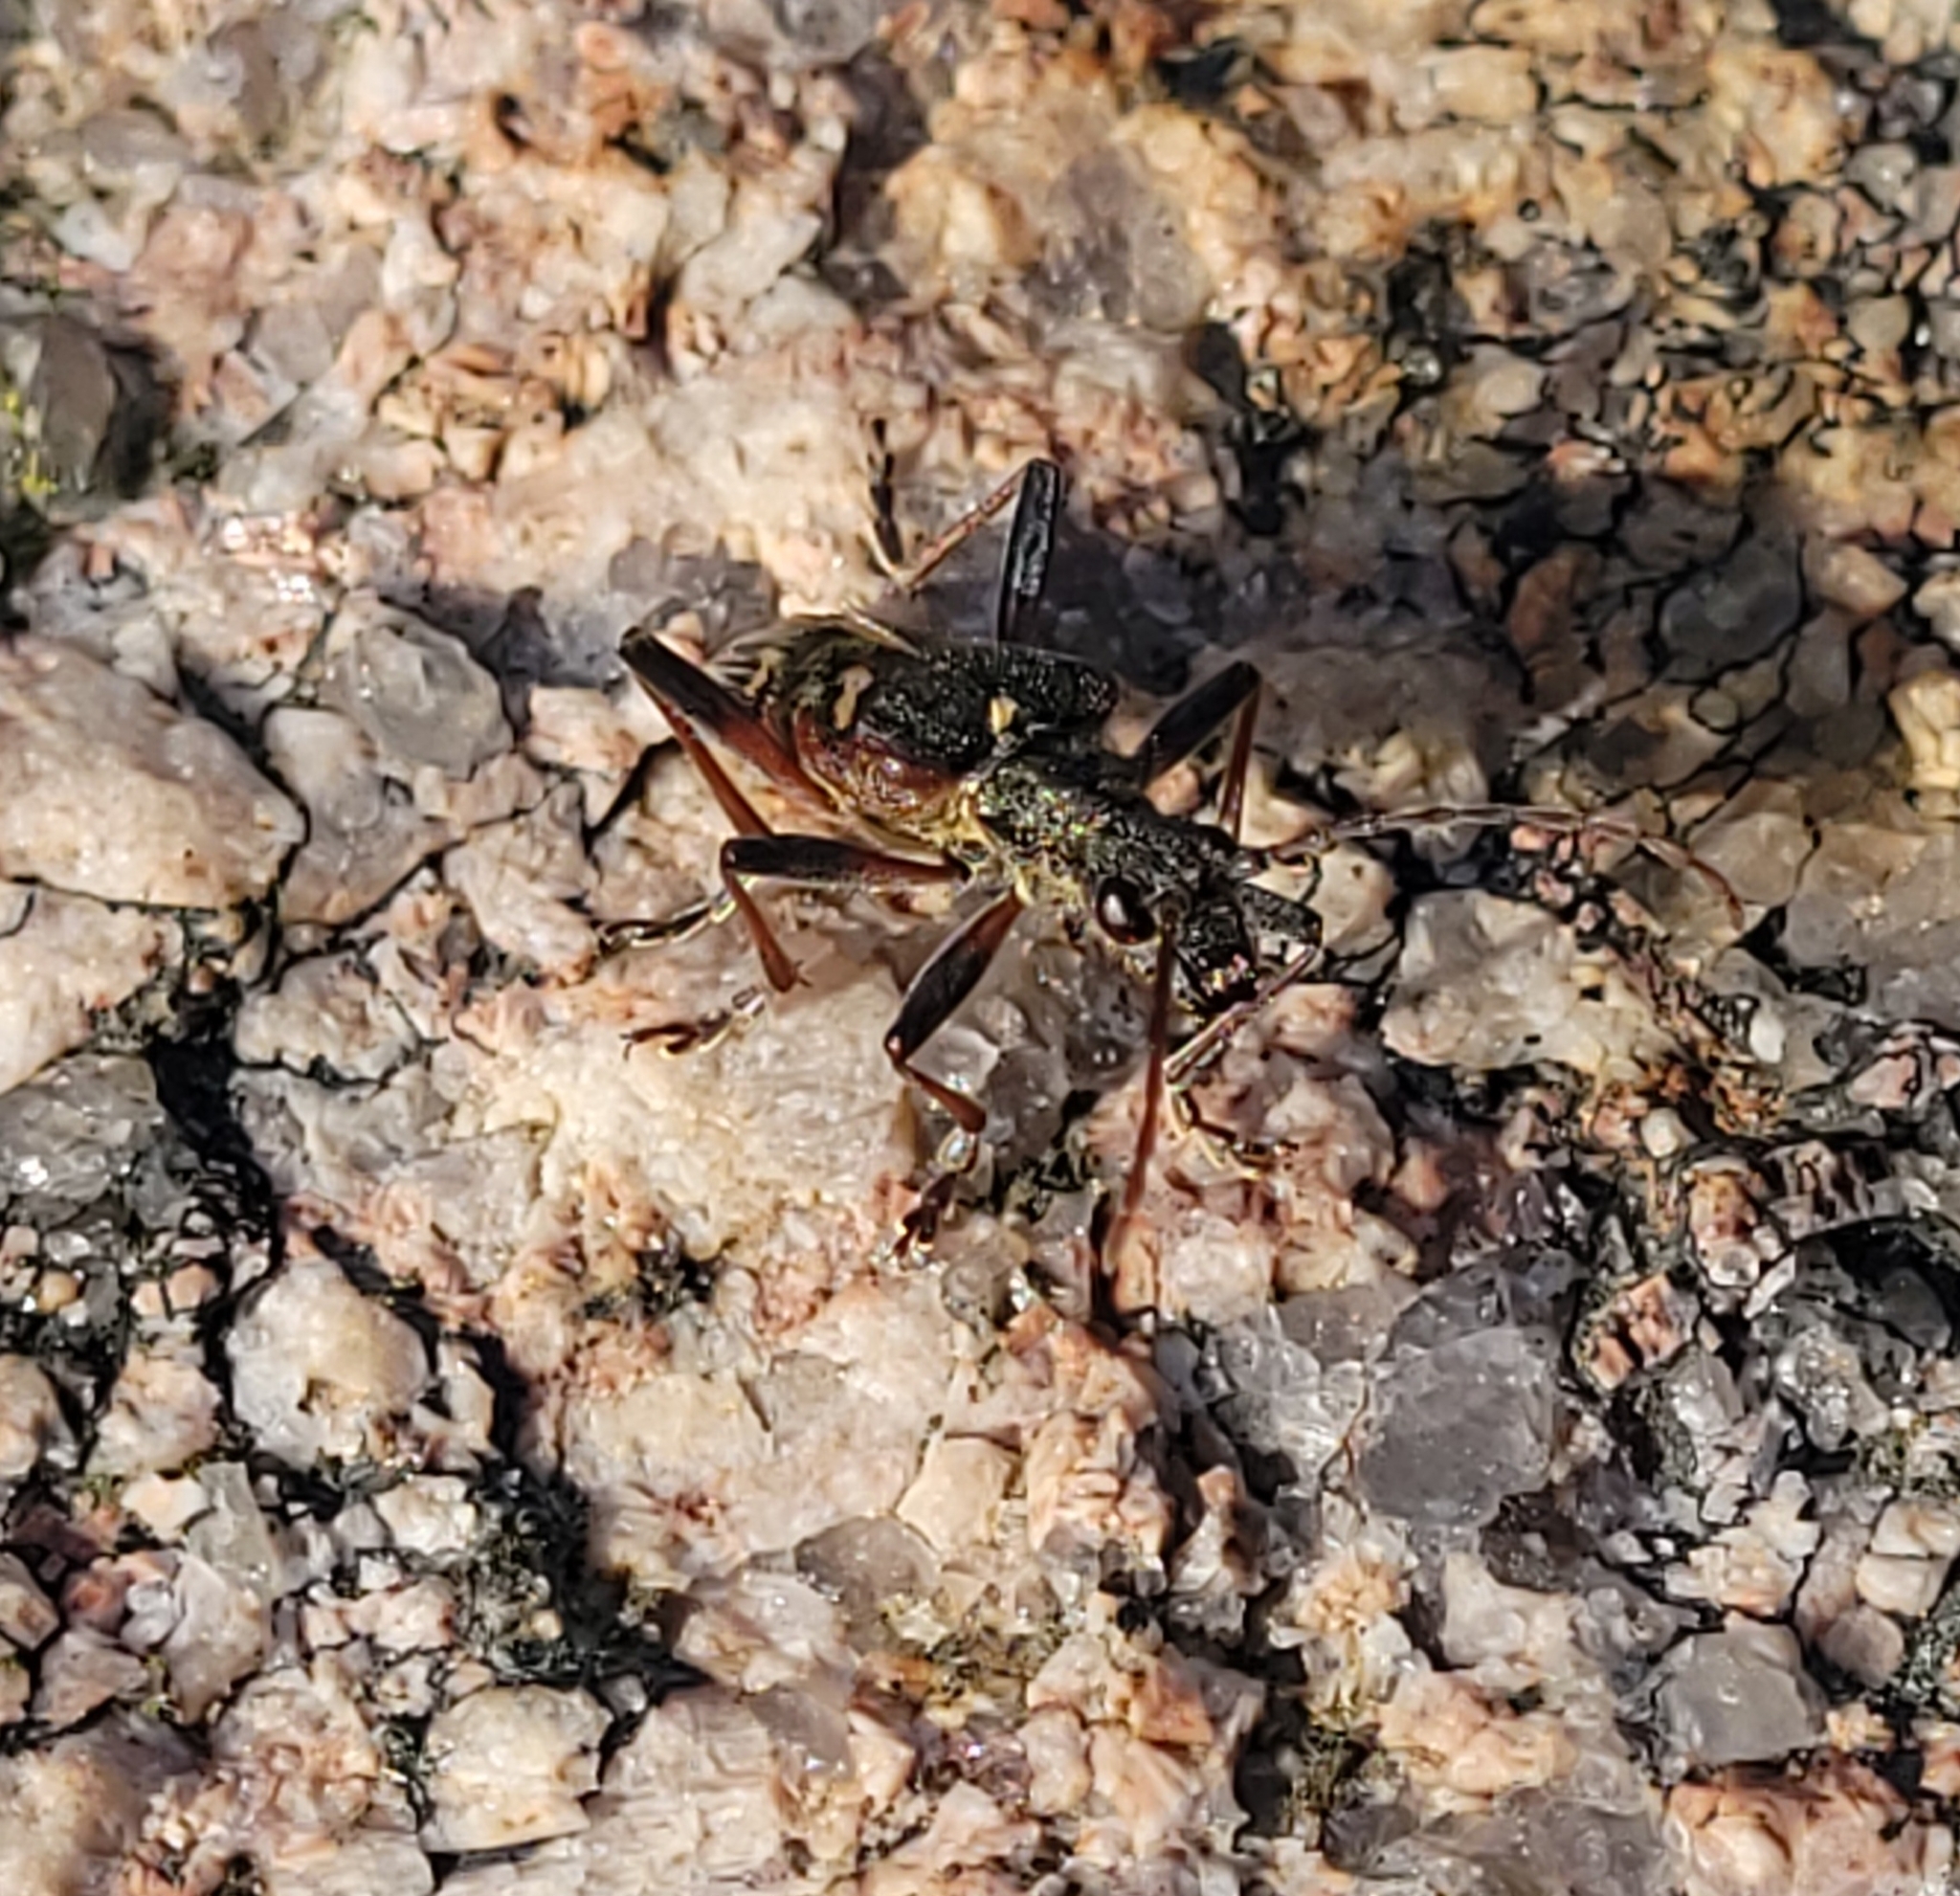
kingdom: Animalia
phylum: Arthropoda
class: Insecta
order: Coleoptera
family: Cerambycidae
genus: Rhagium
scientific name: Rhagium bifasciatum
